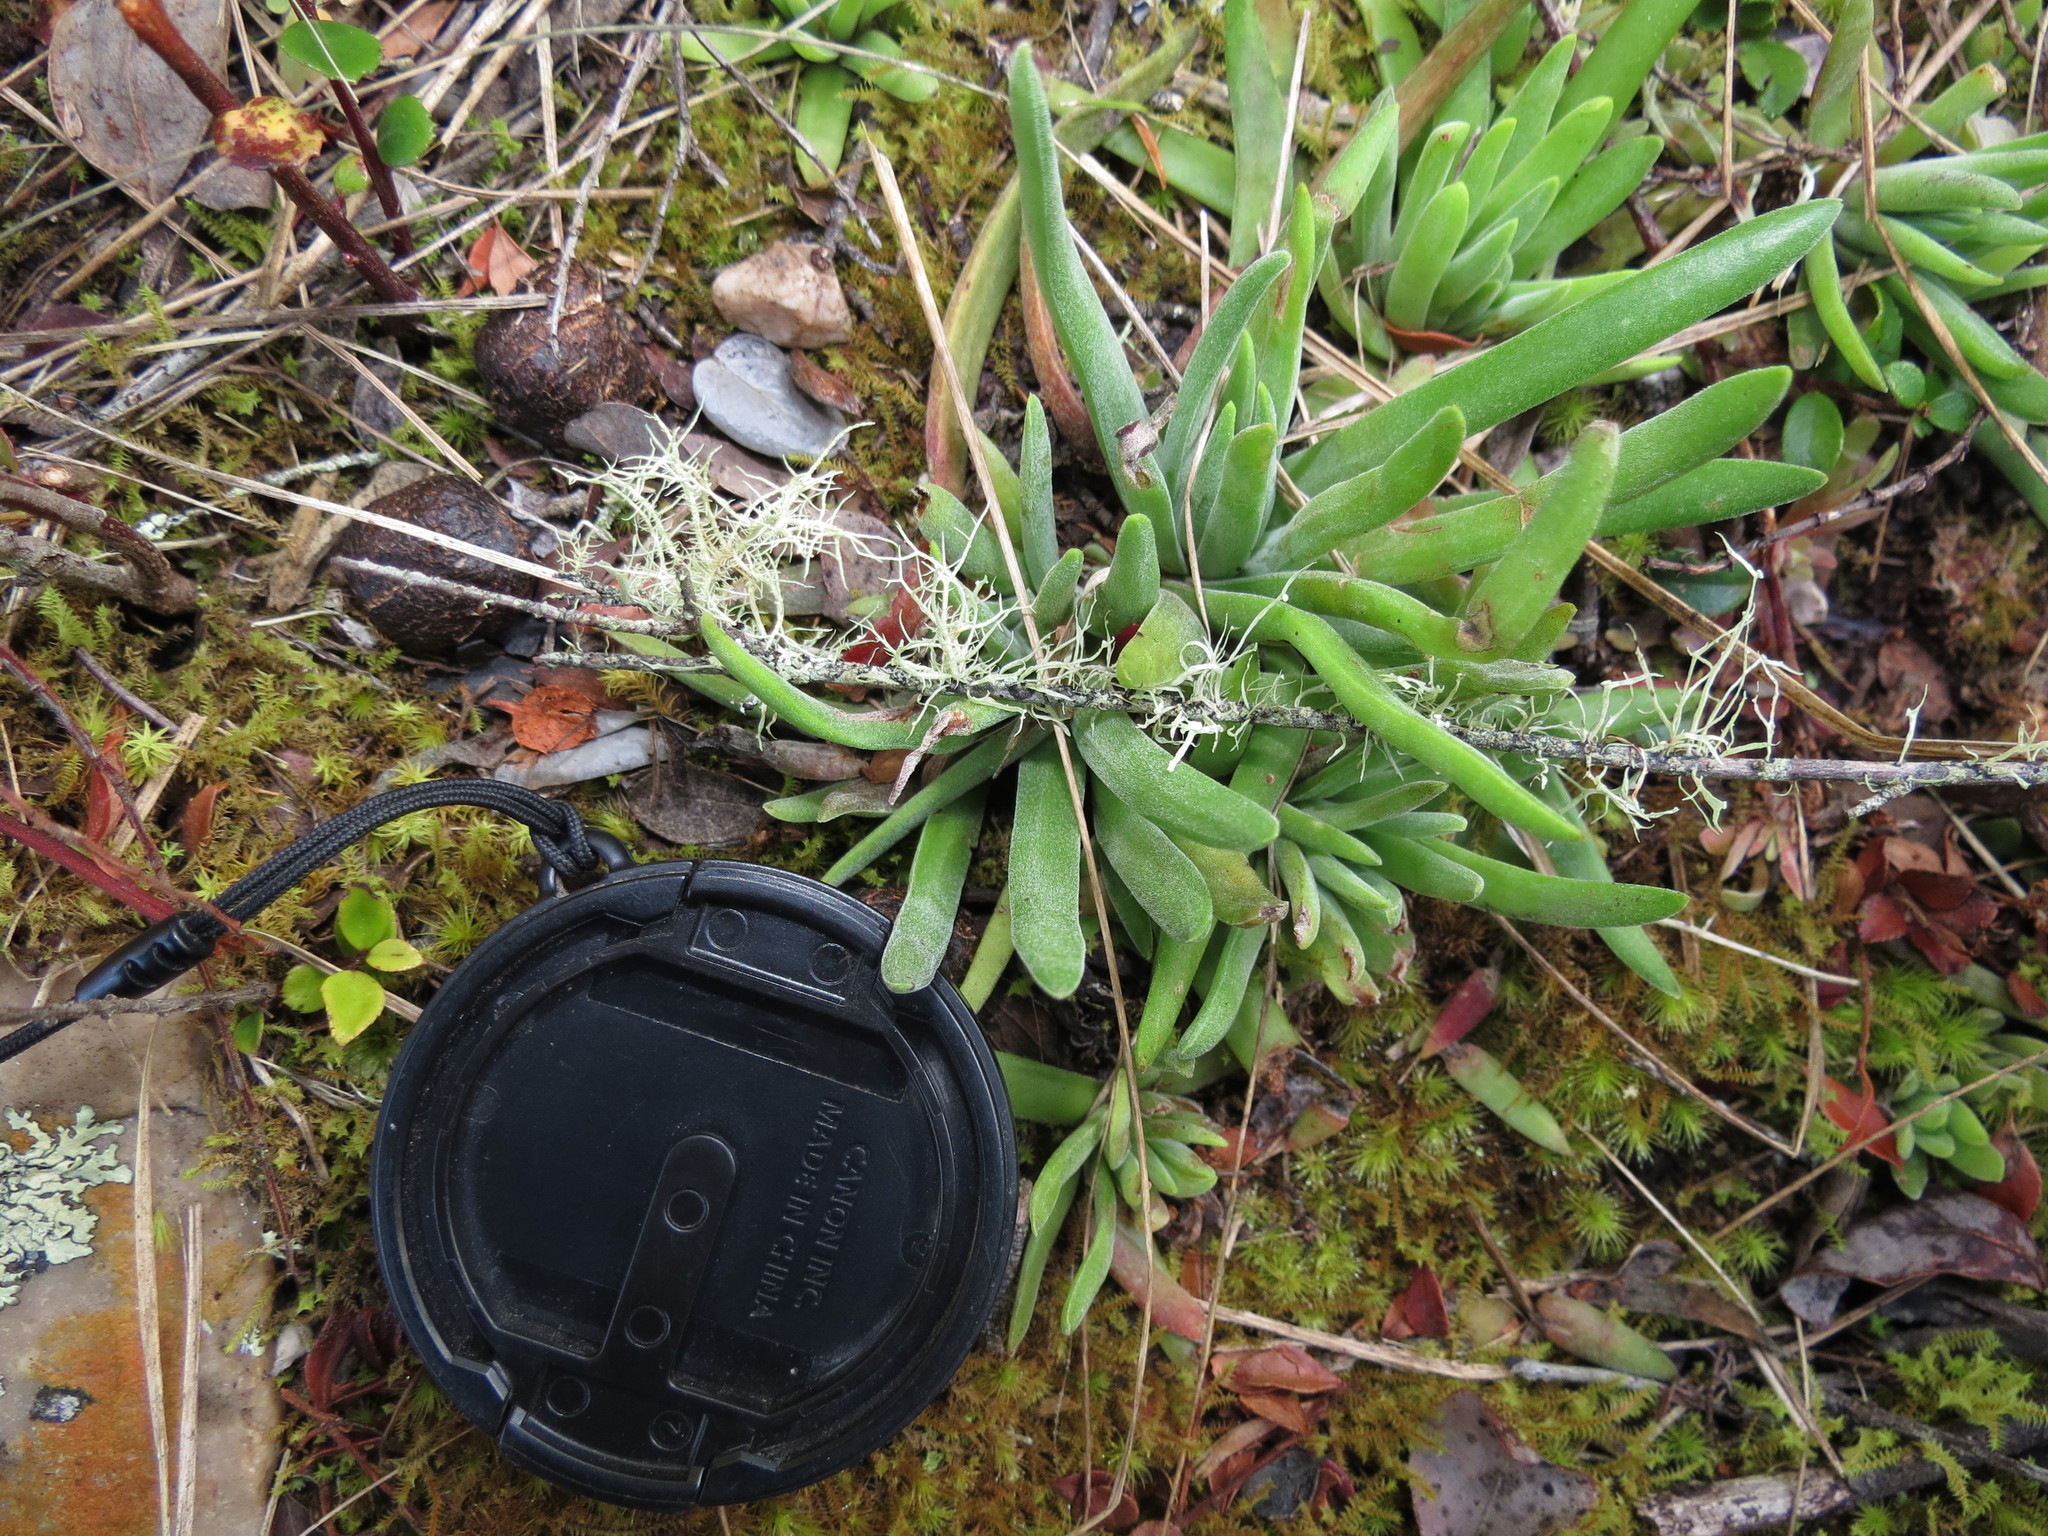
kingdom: Plantae
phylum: Tracheophyta
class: Magnoliopsida
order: Saxifragales
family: Crassulaceae
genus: Crassula
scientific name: Crassula nudicaulis
